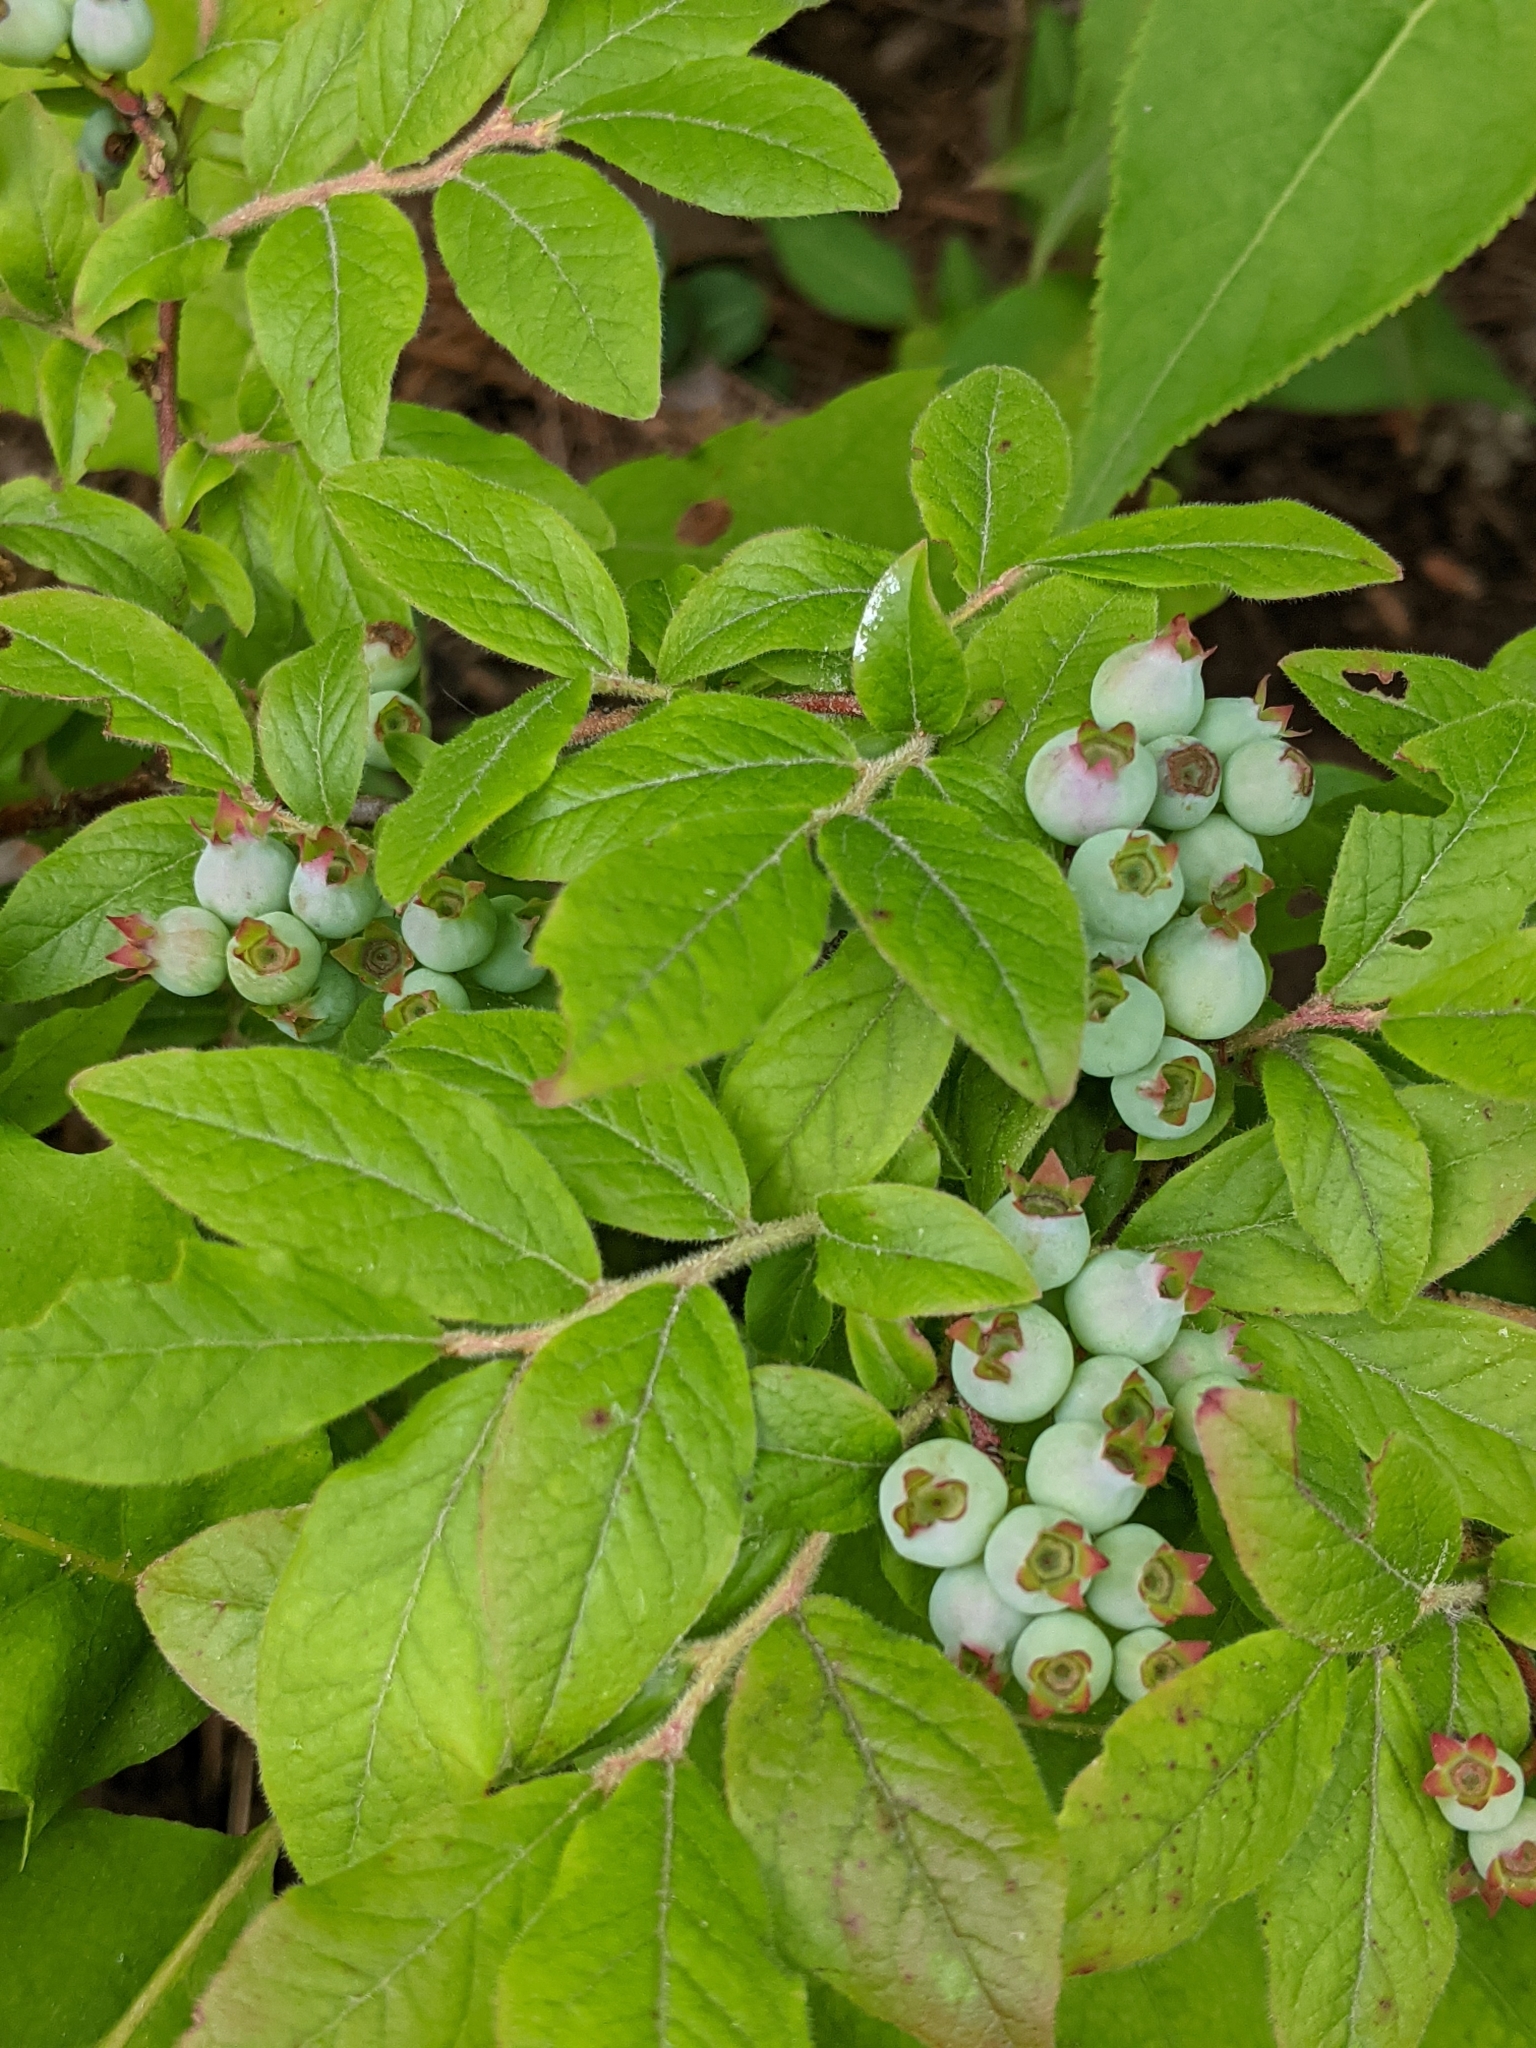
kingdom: Plantae
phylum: Tracheophyta
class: Magnoliopsida
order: Ericales
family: Ericaceae
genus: Vaccinium
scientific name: Vaccinium myrtilloides
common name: Canada blueberry
